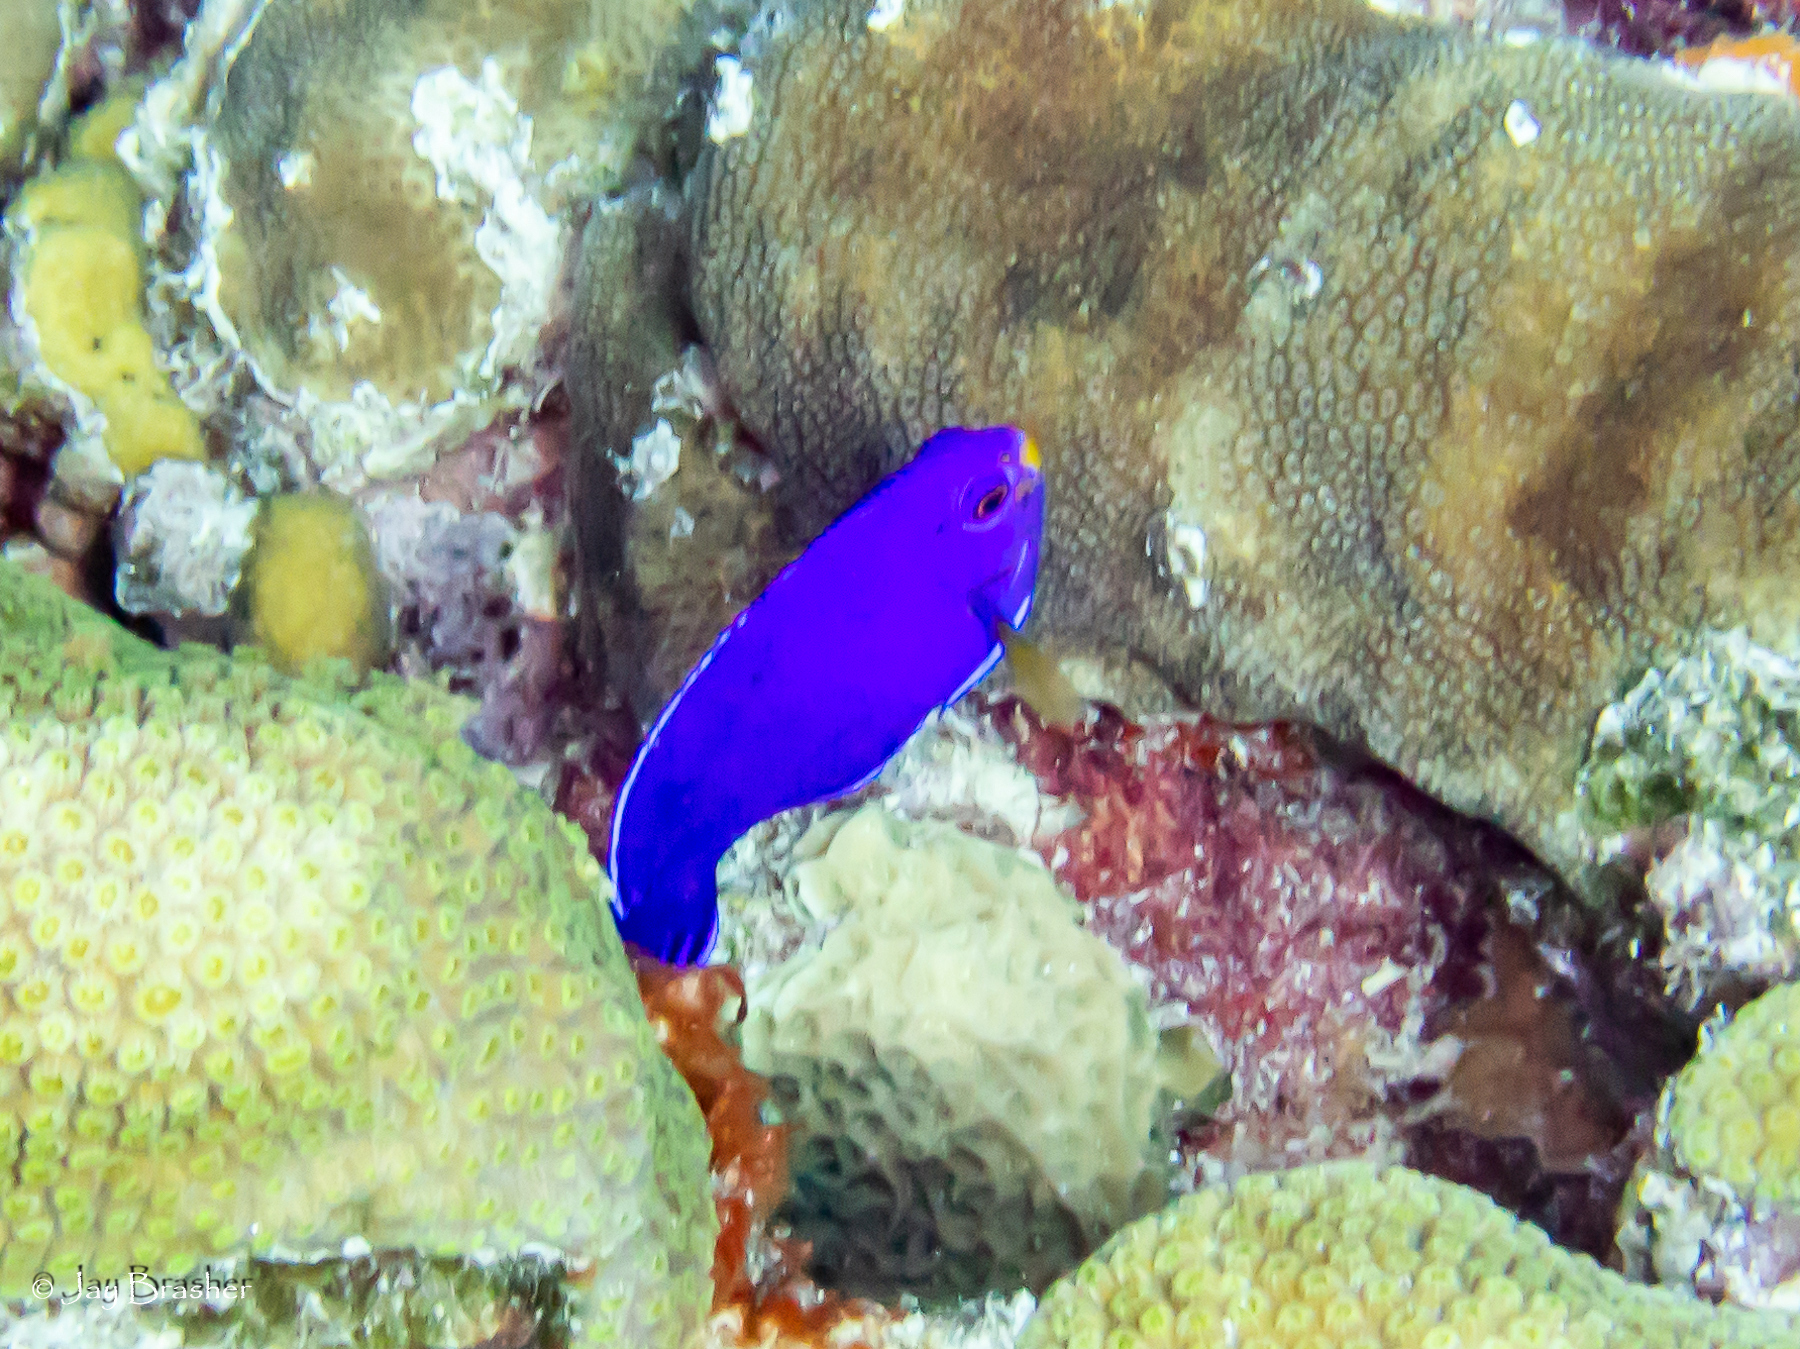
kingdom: Animalia
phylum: Chordata
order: Perciformes
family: Pomacanthidae
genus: Centropyge
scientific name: Centropyge argi
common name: Cherubfish
